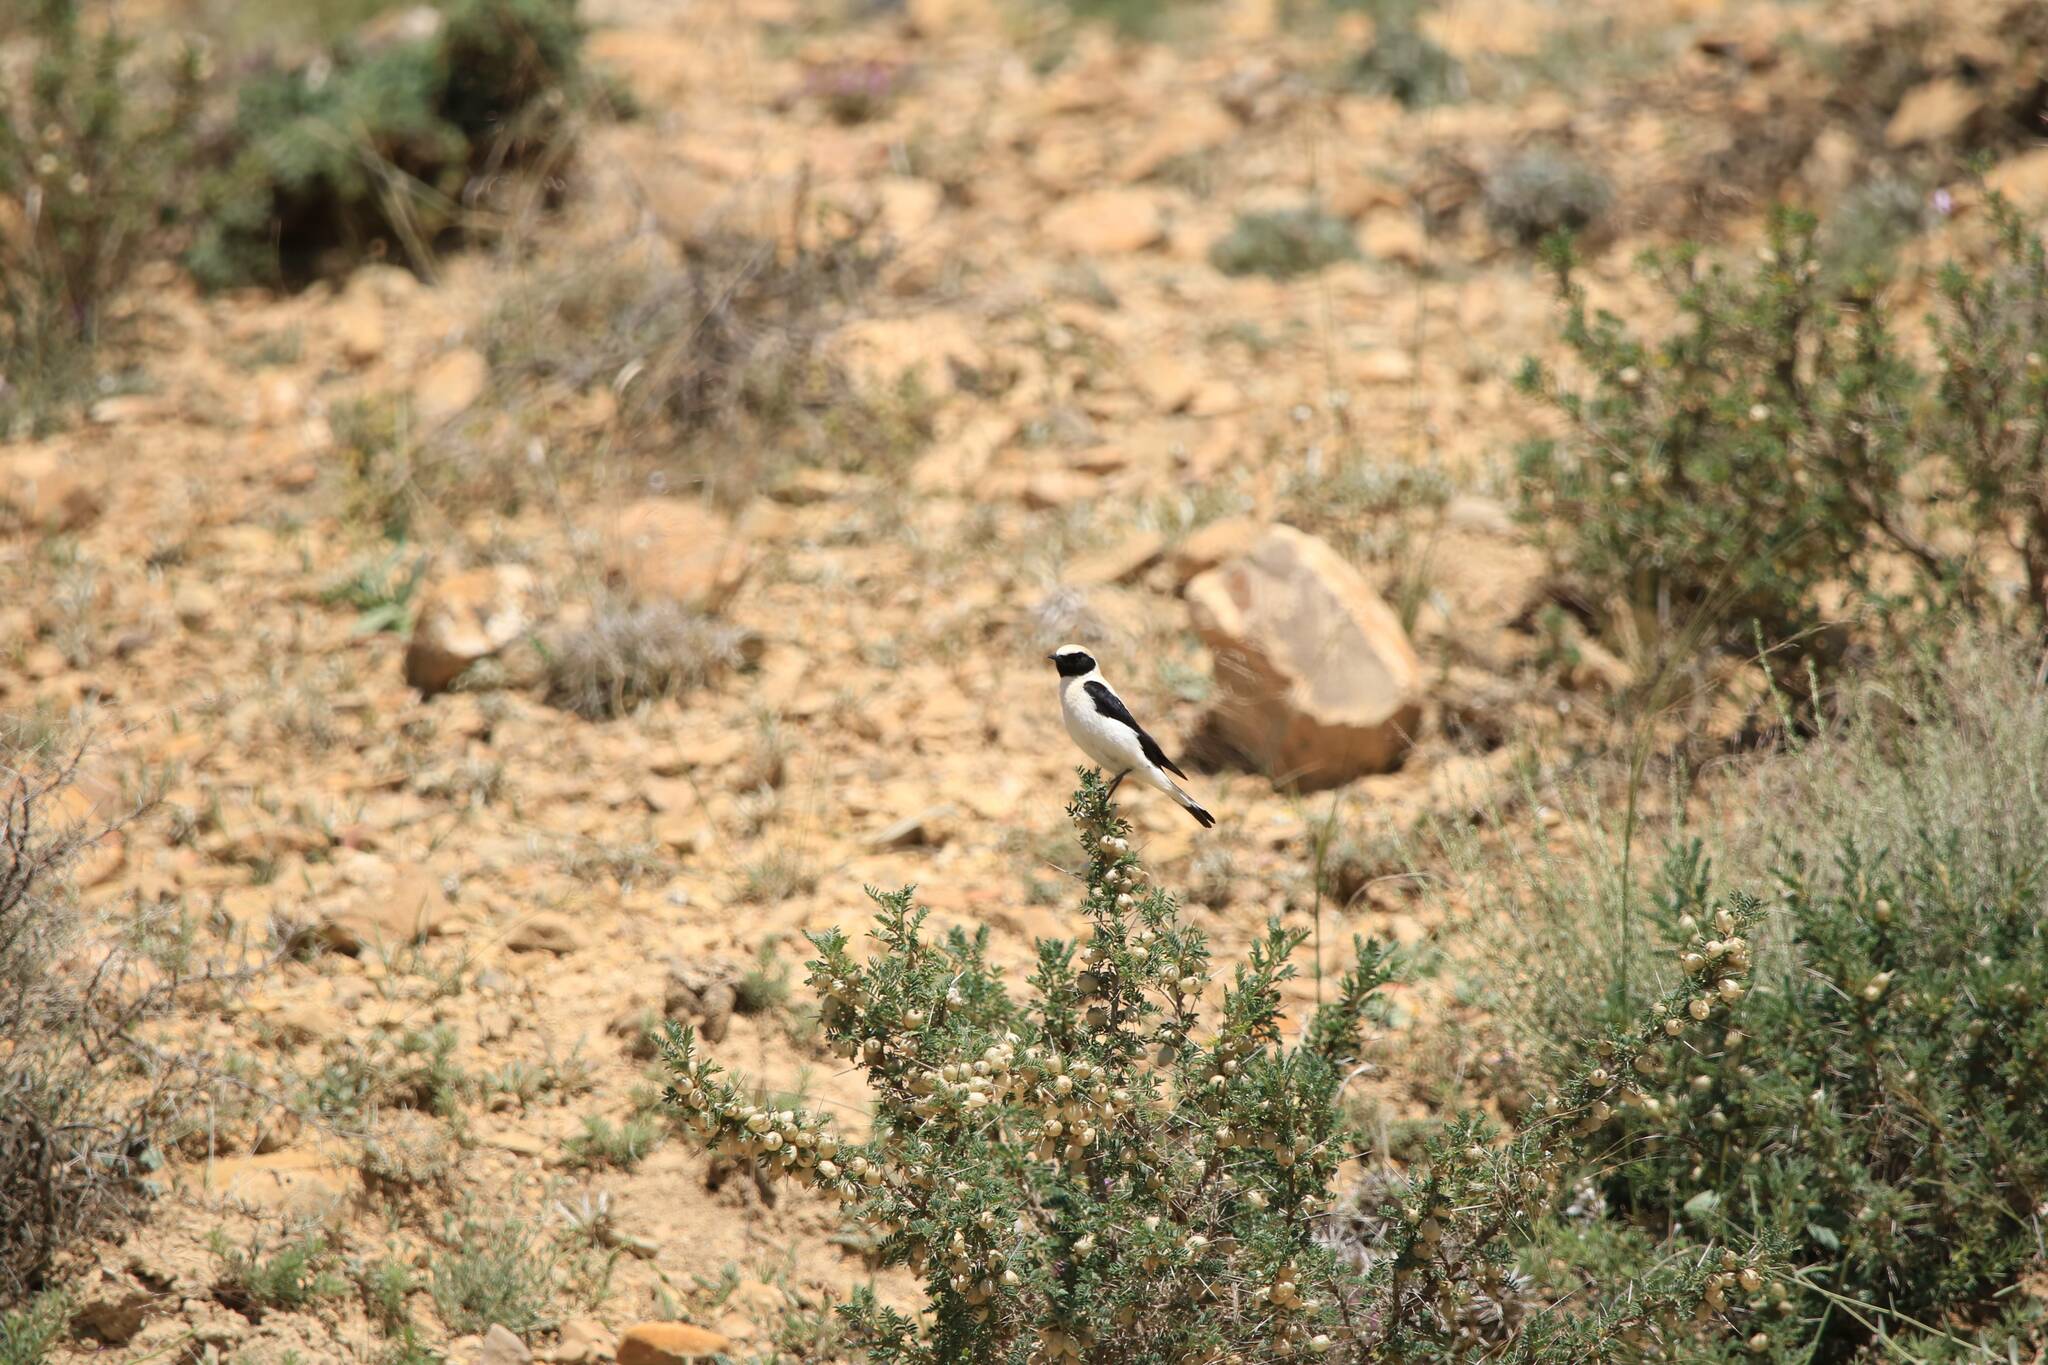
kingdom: Animalia
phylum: Chordata
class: Aves
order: Passeriformes
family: Muscicapidae
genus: Oenanthe
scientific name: Oenanthe hispanica
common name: Black-eared wheatear
